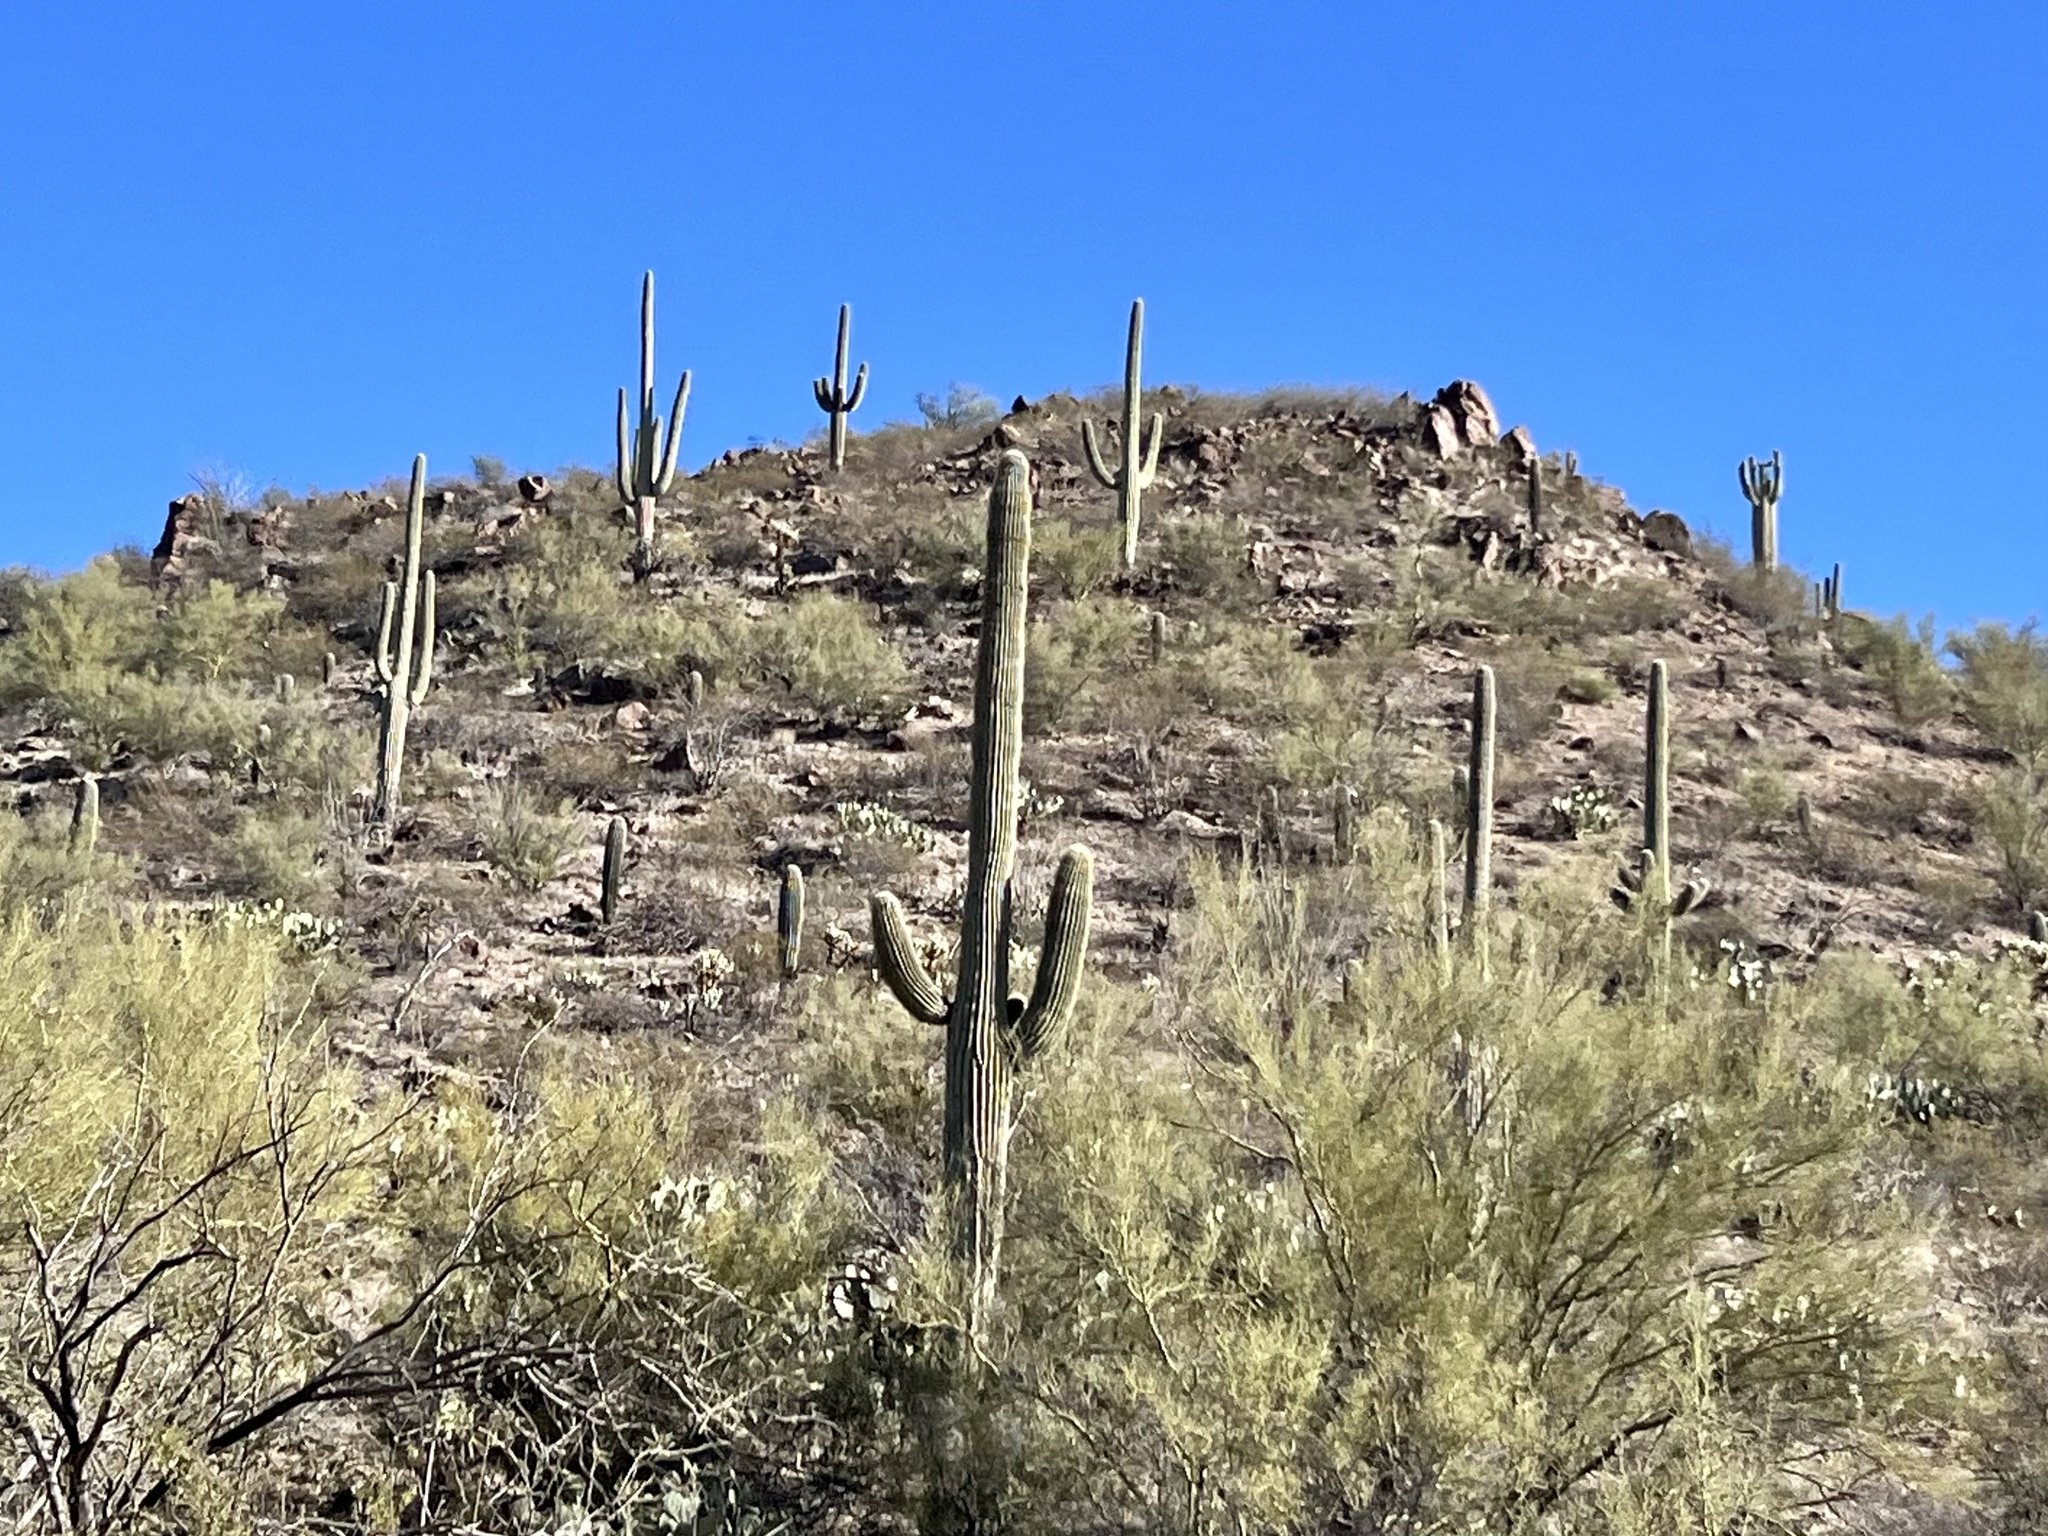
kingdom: Plantae
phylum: Tracheophyta
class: Magnoliopsida
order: Caryophyllales
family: Cactaceae
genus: Carnegiea
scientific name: Carnegiea gigantea
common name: Saguaro
